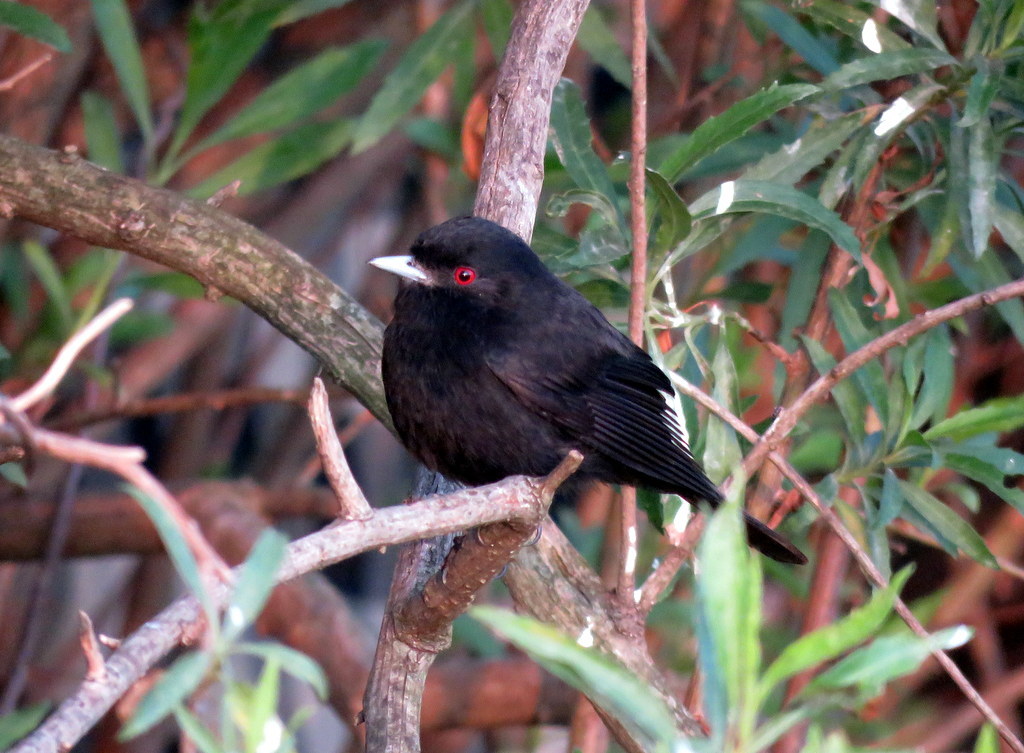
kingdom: Animalia
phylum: Chordata
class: Aves
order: Passeriformes
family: Tyrannidae
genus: Knipolegus
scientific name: Knipolegus cyanirostris
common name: Blue-billed black tyrant
